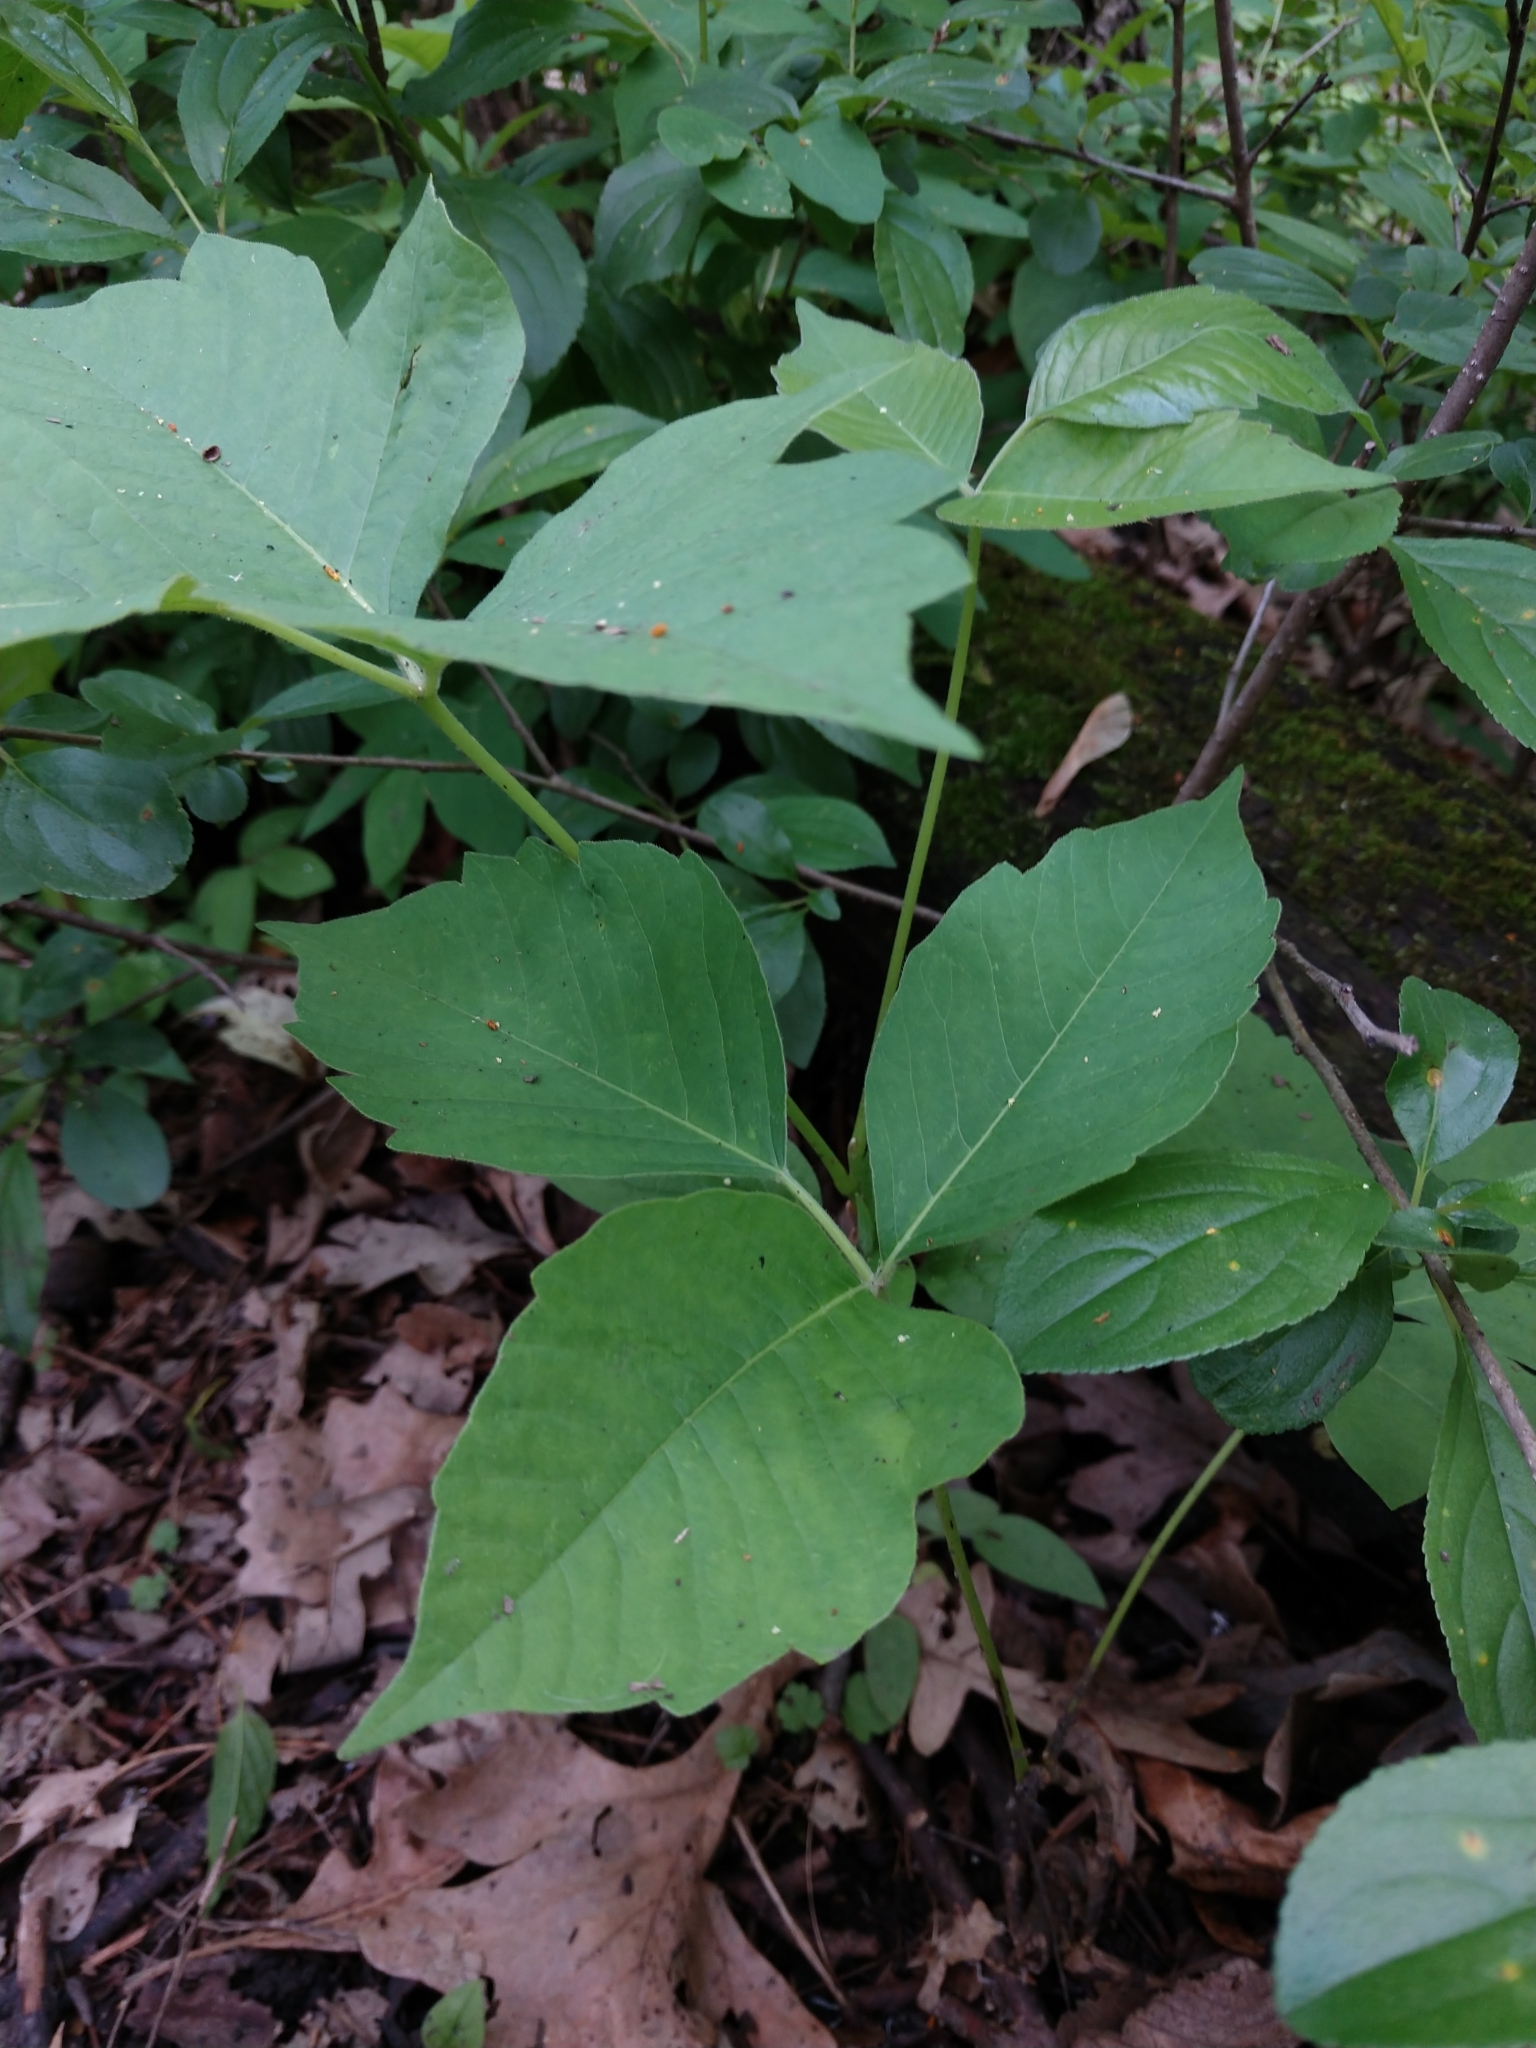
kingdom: Plantae
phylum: Tracheophyta
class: Magnoliopsida
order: Sapindales
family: Anacardiaceae
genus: Toxicodendron
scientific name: Toxicodendron rydbergii
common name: Rydberg's poison-ivy
